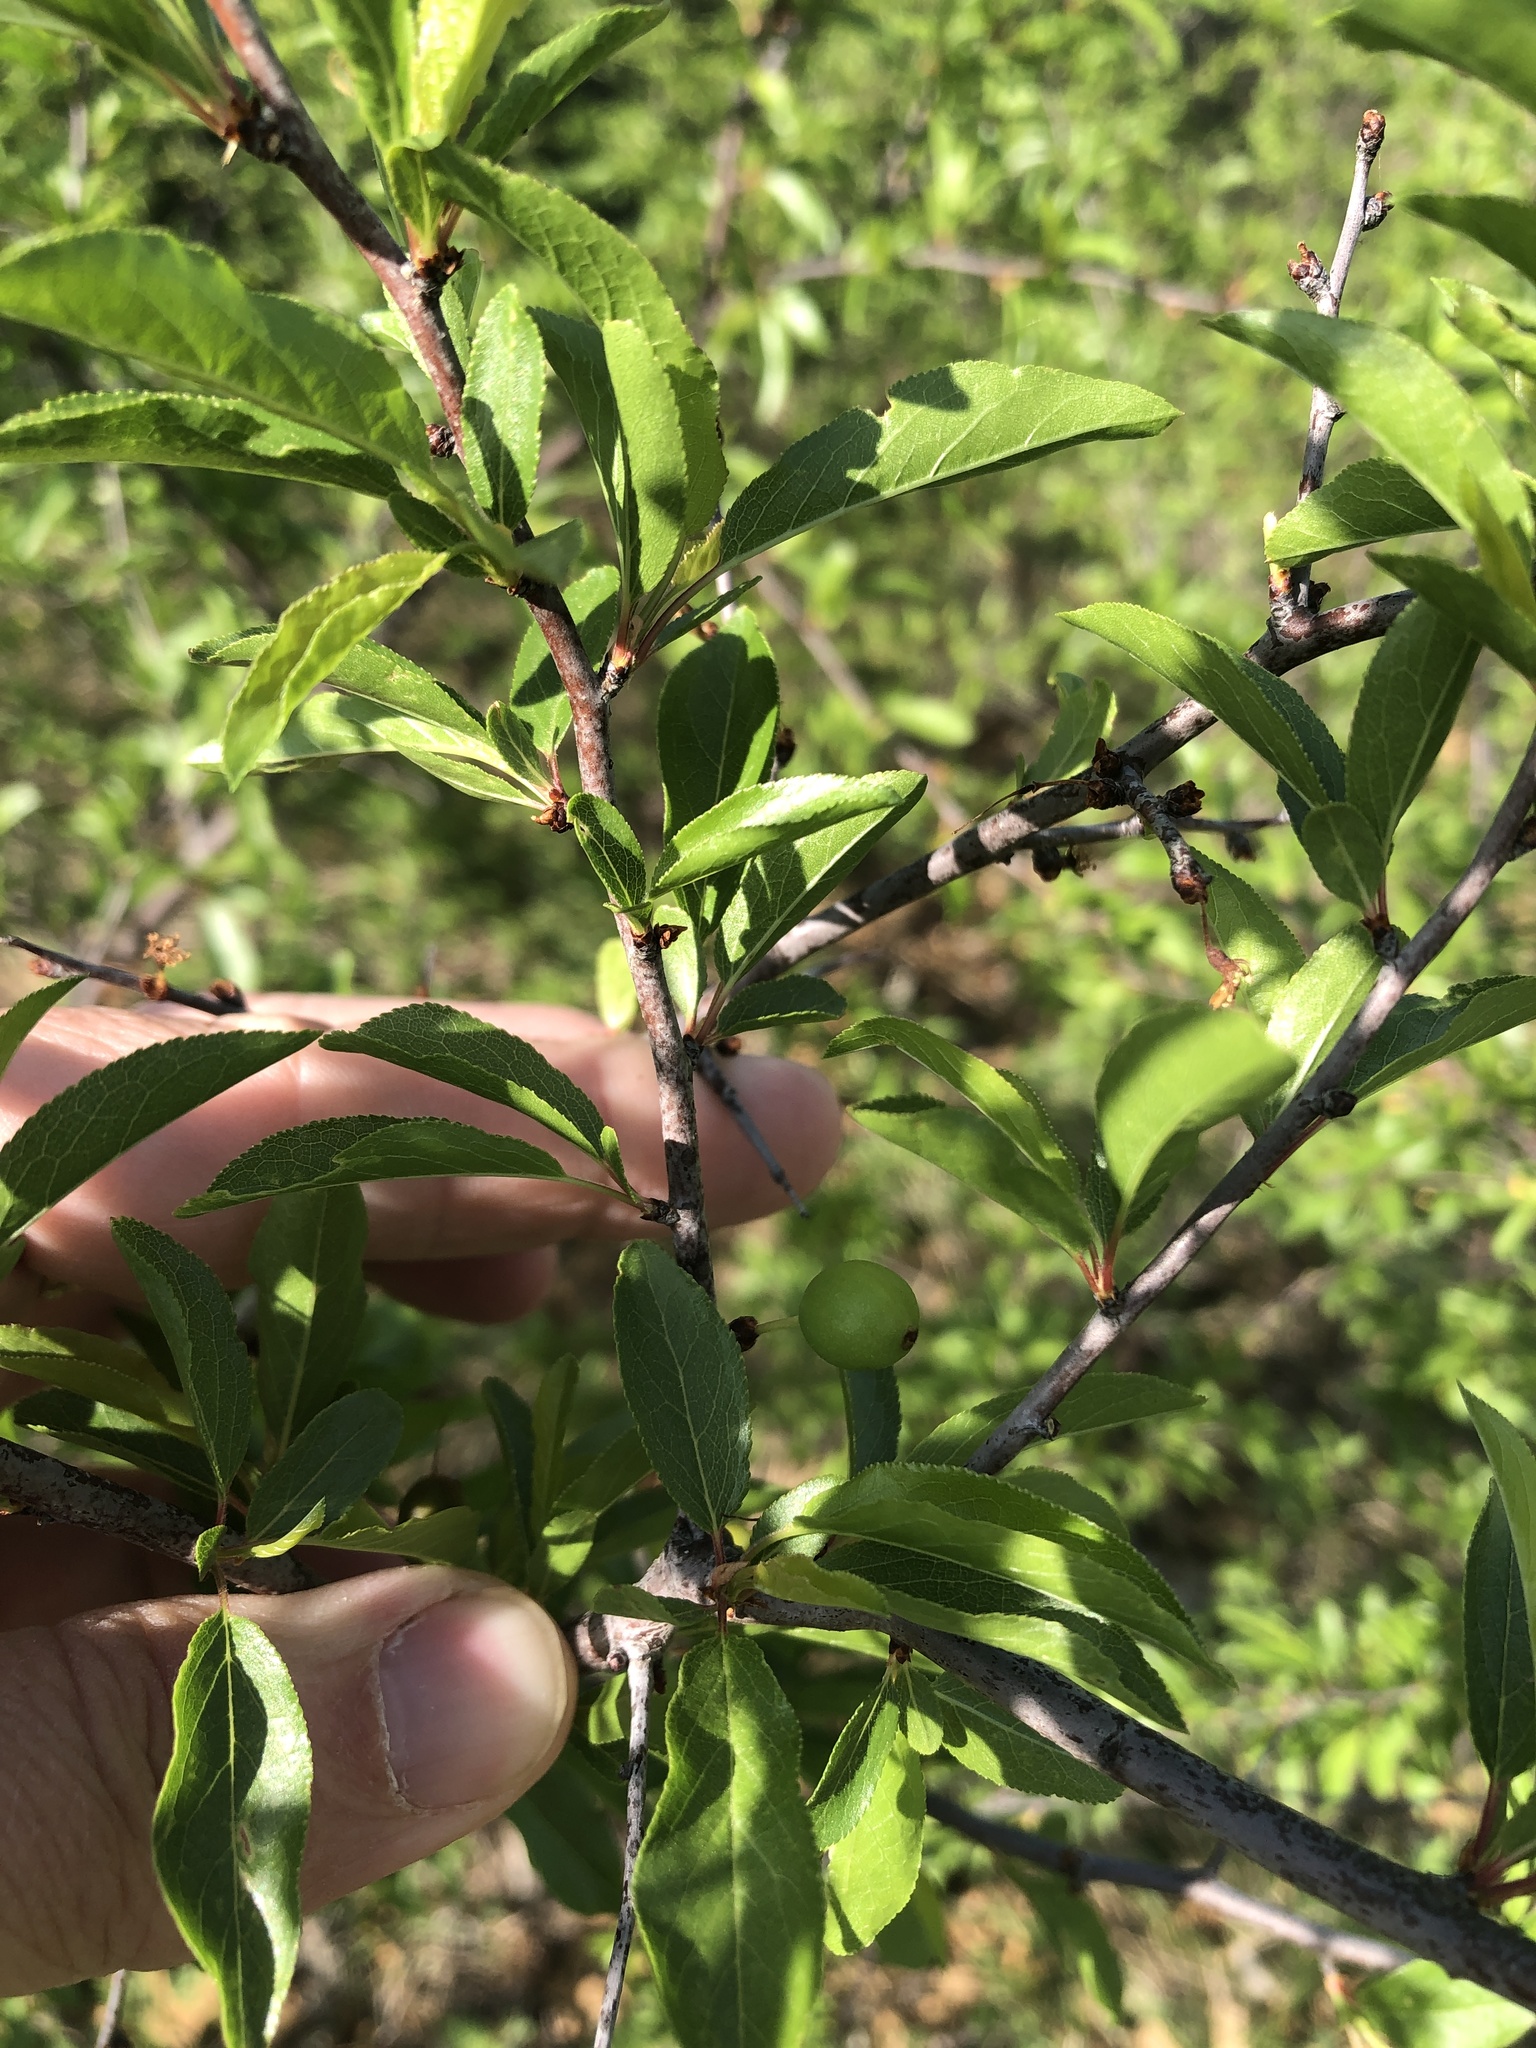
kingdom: Plantae
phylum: Tracheophyta
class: Magnoliopsida
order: Rosales
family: Rosaceae
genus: Prunus
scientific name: Prunus angustifolia
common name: Cherokee plum
